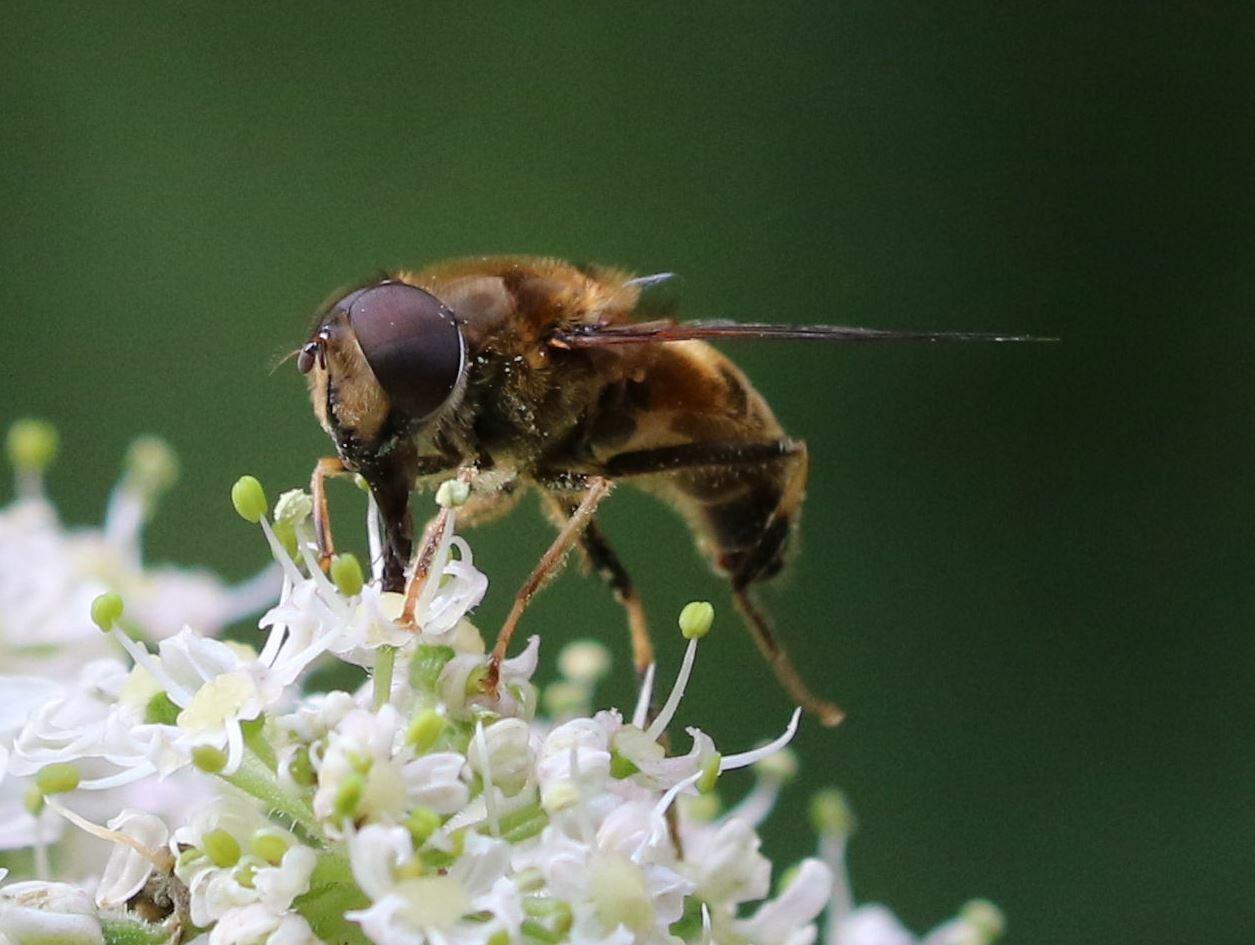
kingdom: Animalia
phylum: Arthropoda
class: Insecta
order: Diptera
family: Syrphidae
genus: Eristalis
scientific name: Eristalis pertinax
